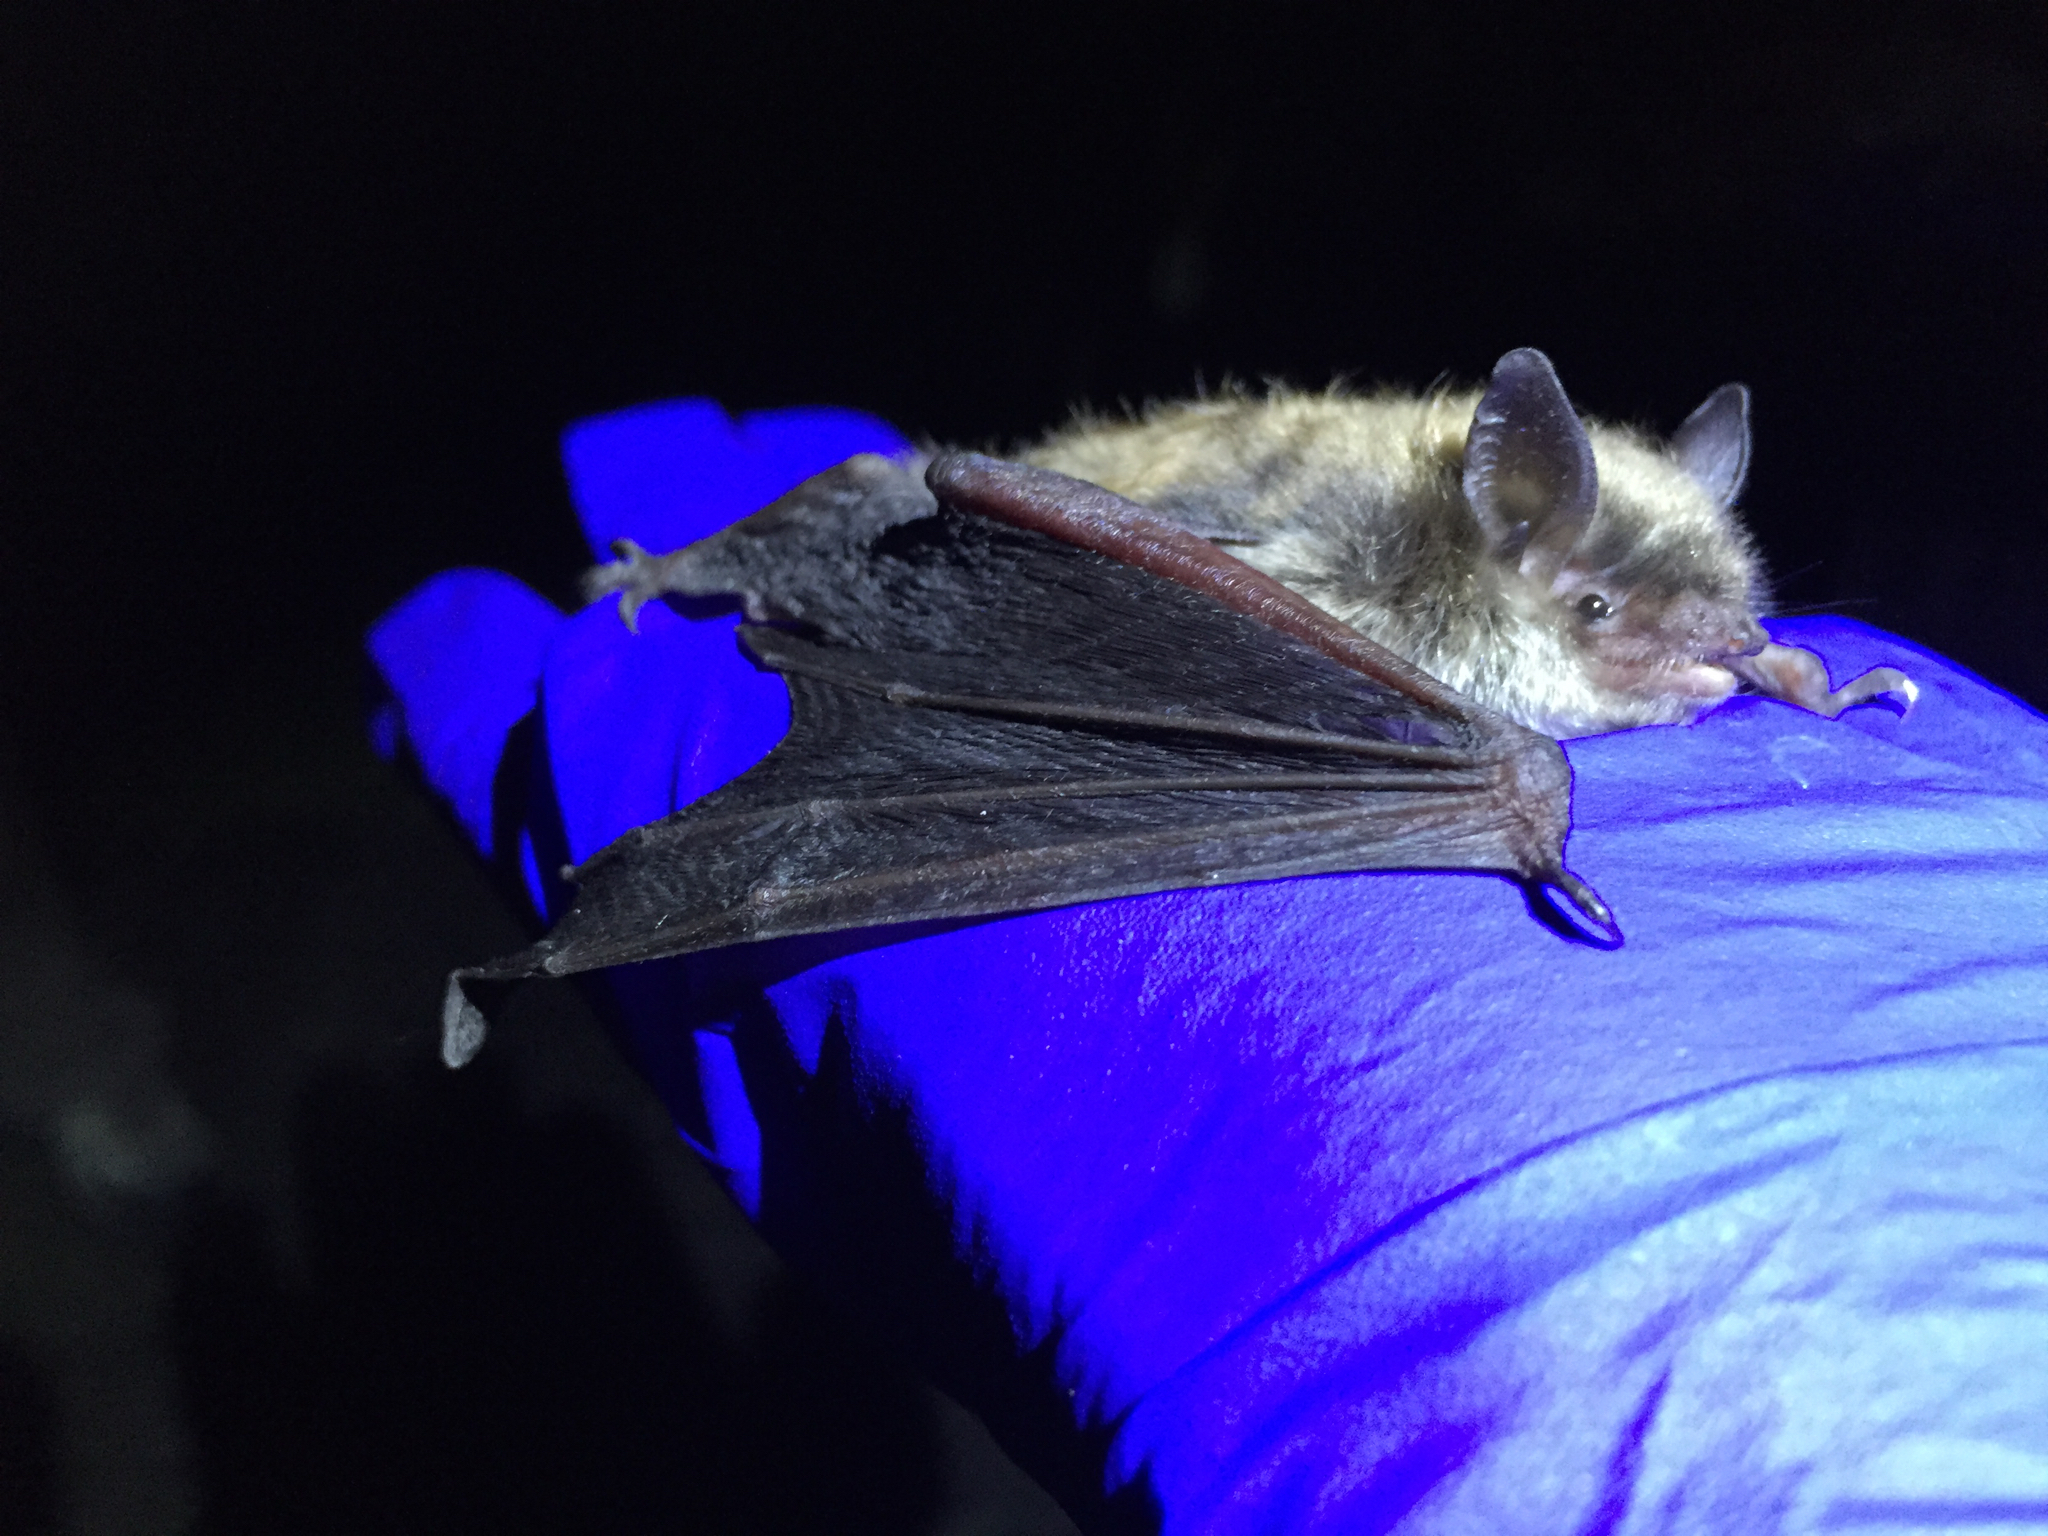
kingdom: Animalia
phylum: Chordata
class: Mammalia
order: Chiroptera
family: Vespertilionidae
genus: Myotis
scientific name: Myotis lucifugus
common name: Little brown bat
